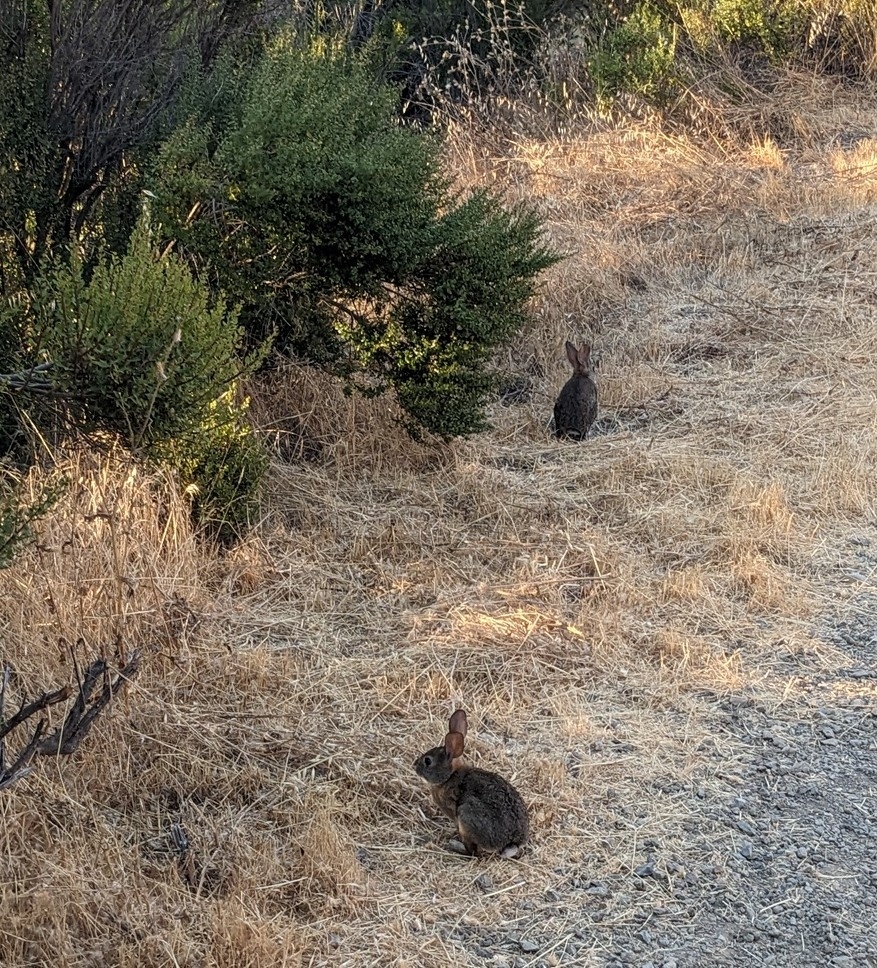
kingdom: Animalia
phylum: Chordata
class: Mammalia
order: Lagomorpha
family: Leporidae
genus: Sylvilagus
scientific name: Sylvilagus bachmani
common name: Brush rabbit
